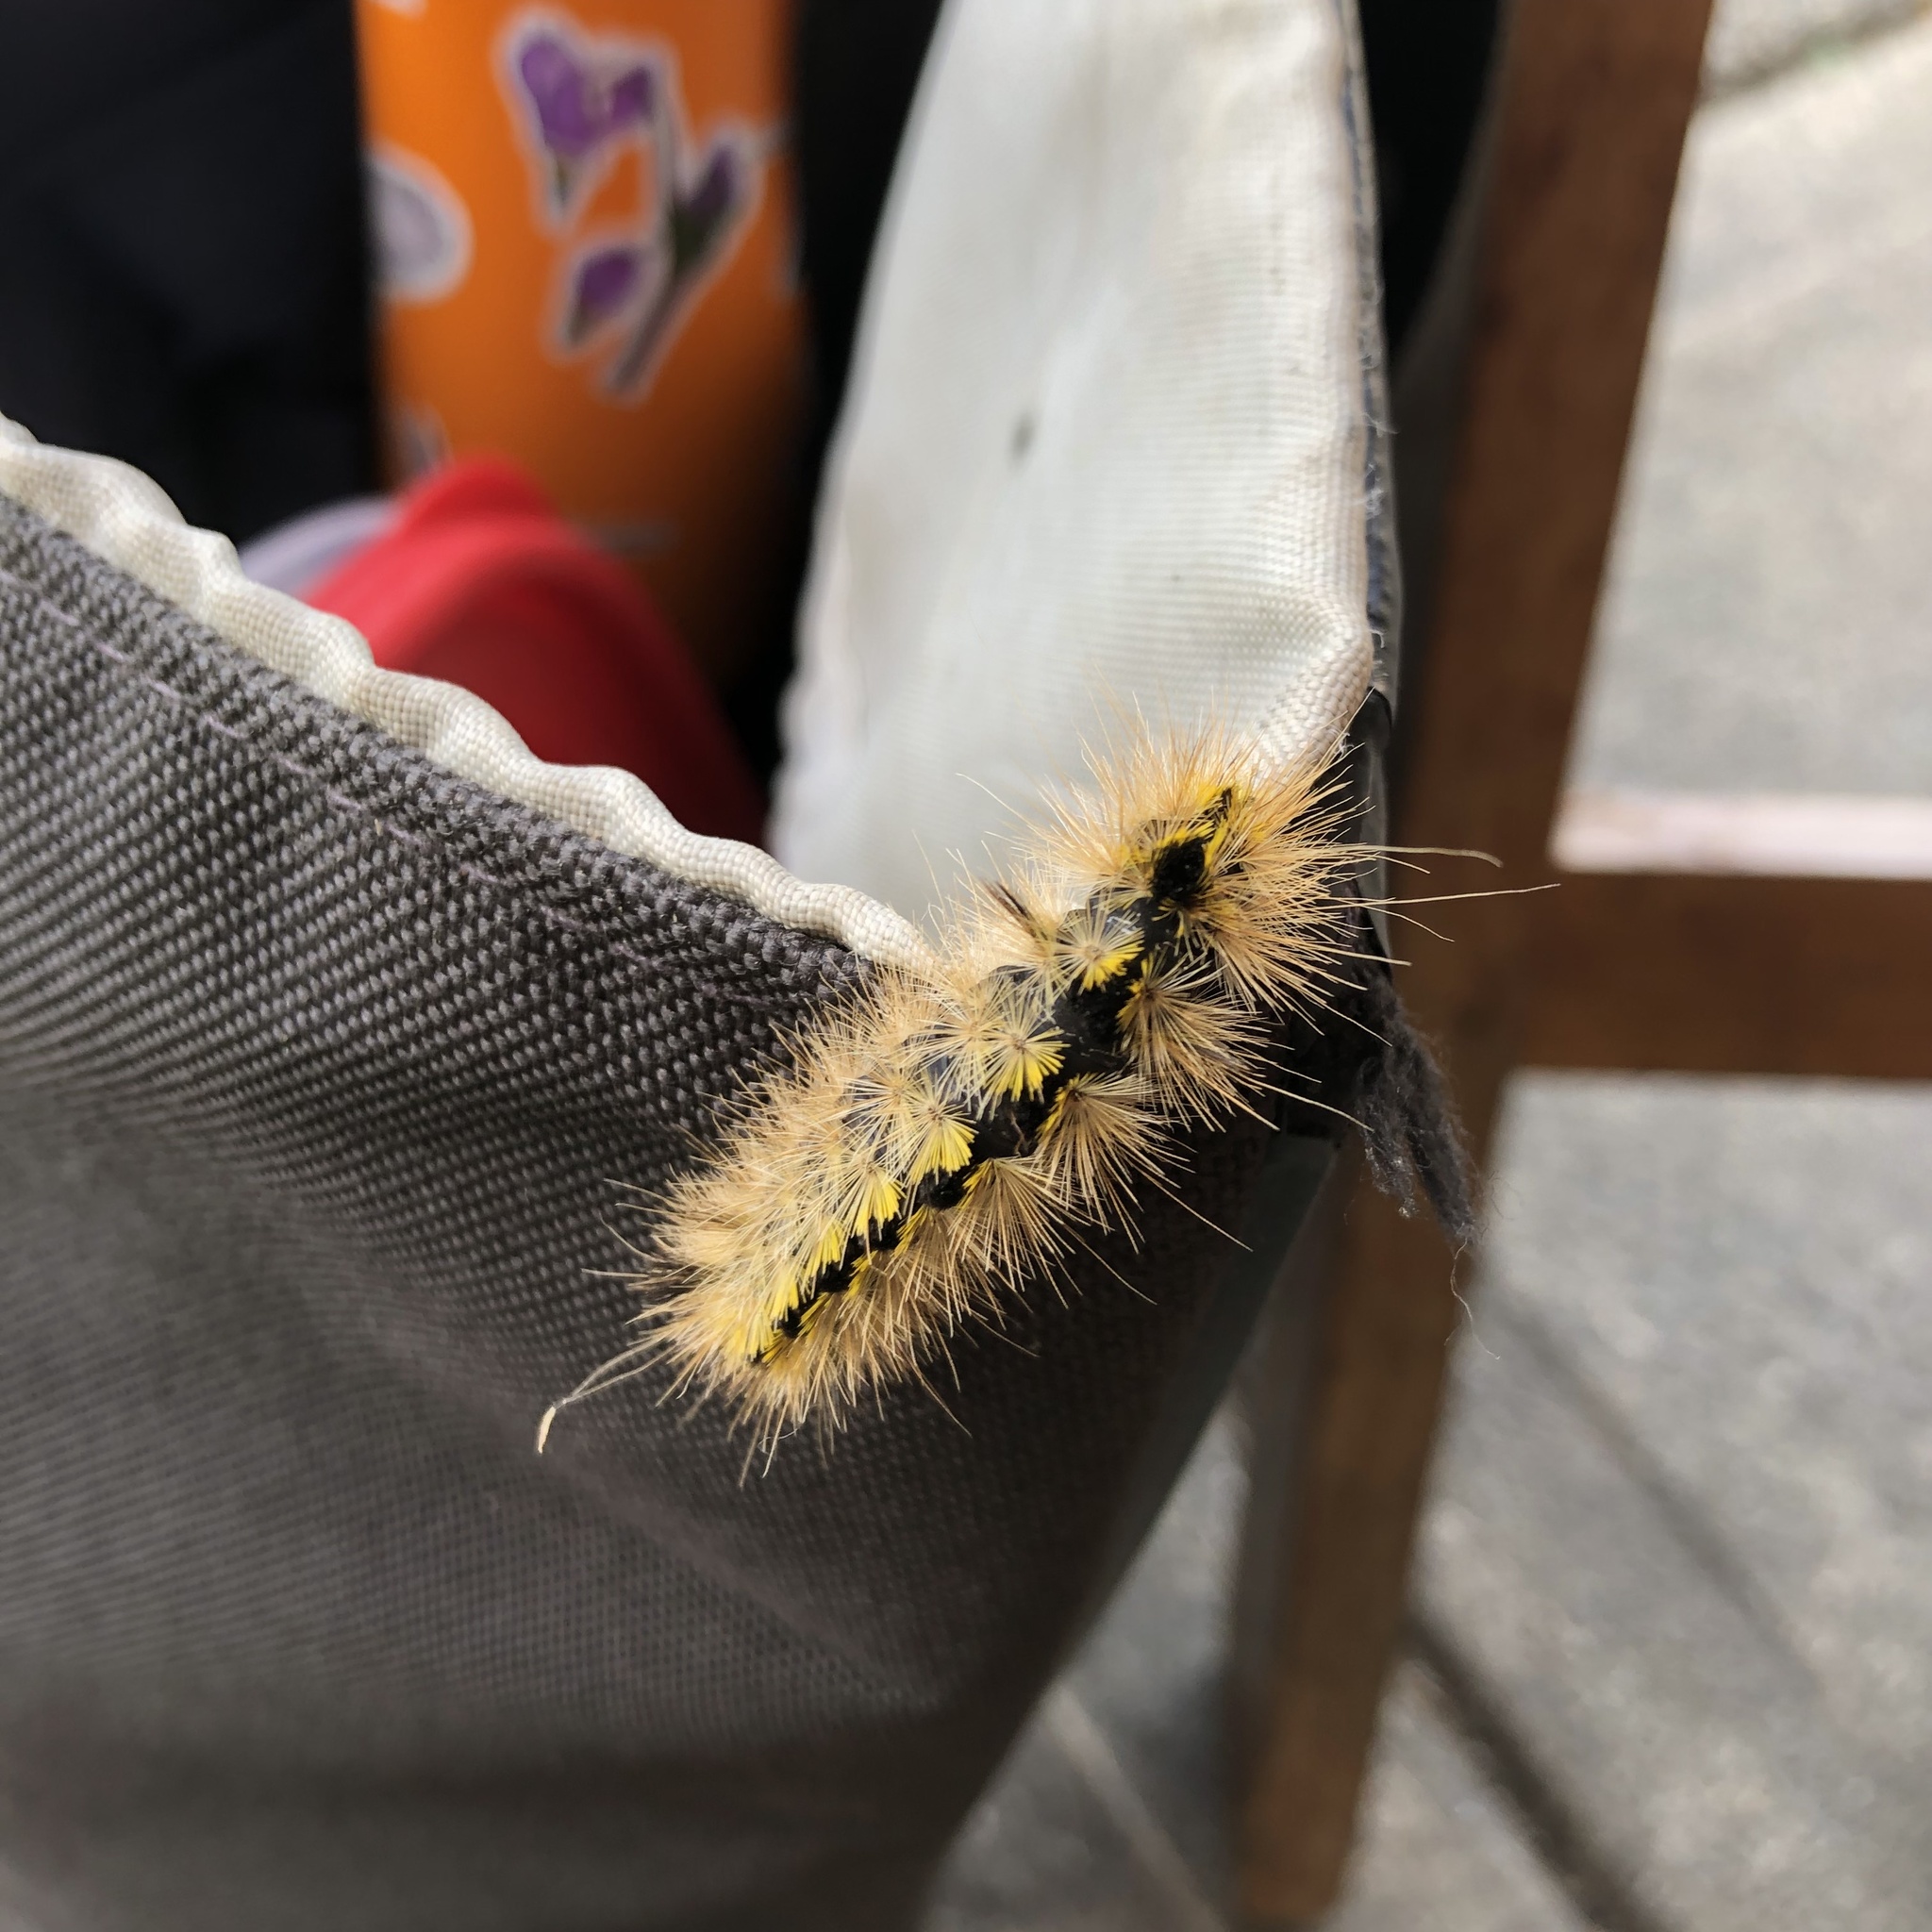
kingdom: Animalia
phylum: Arthropoda
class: Insecta
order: Lepidoptera
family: Erebidae
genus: Lophocampa
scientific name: Lophocampa argentata
